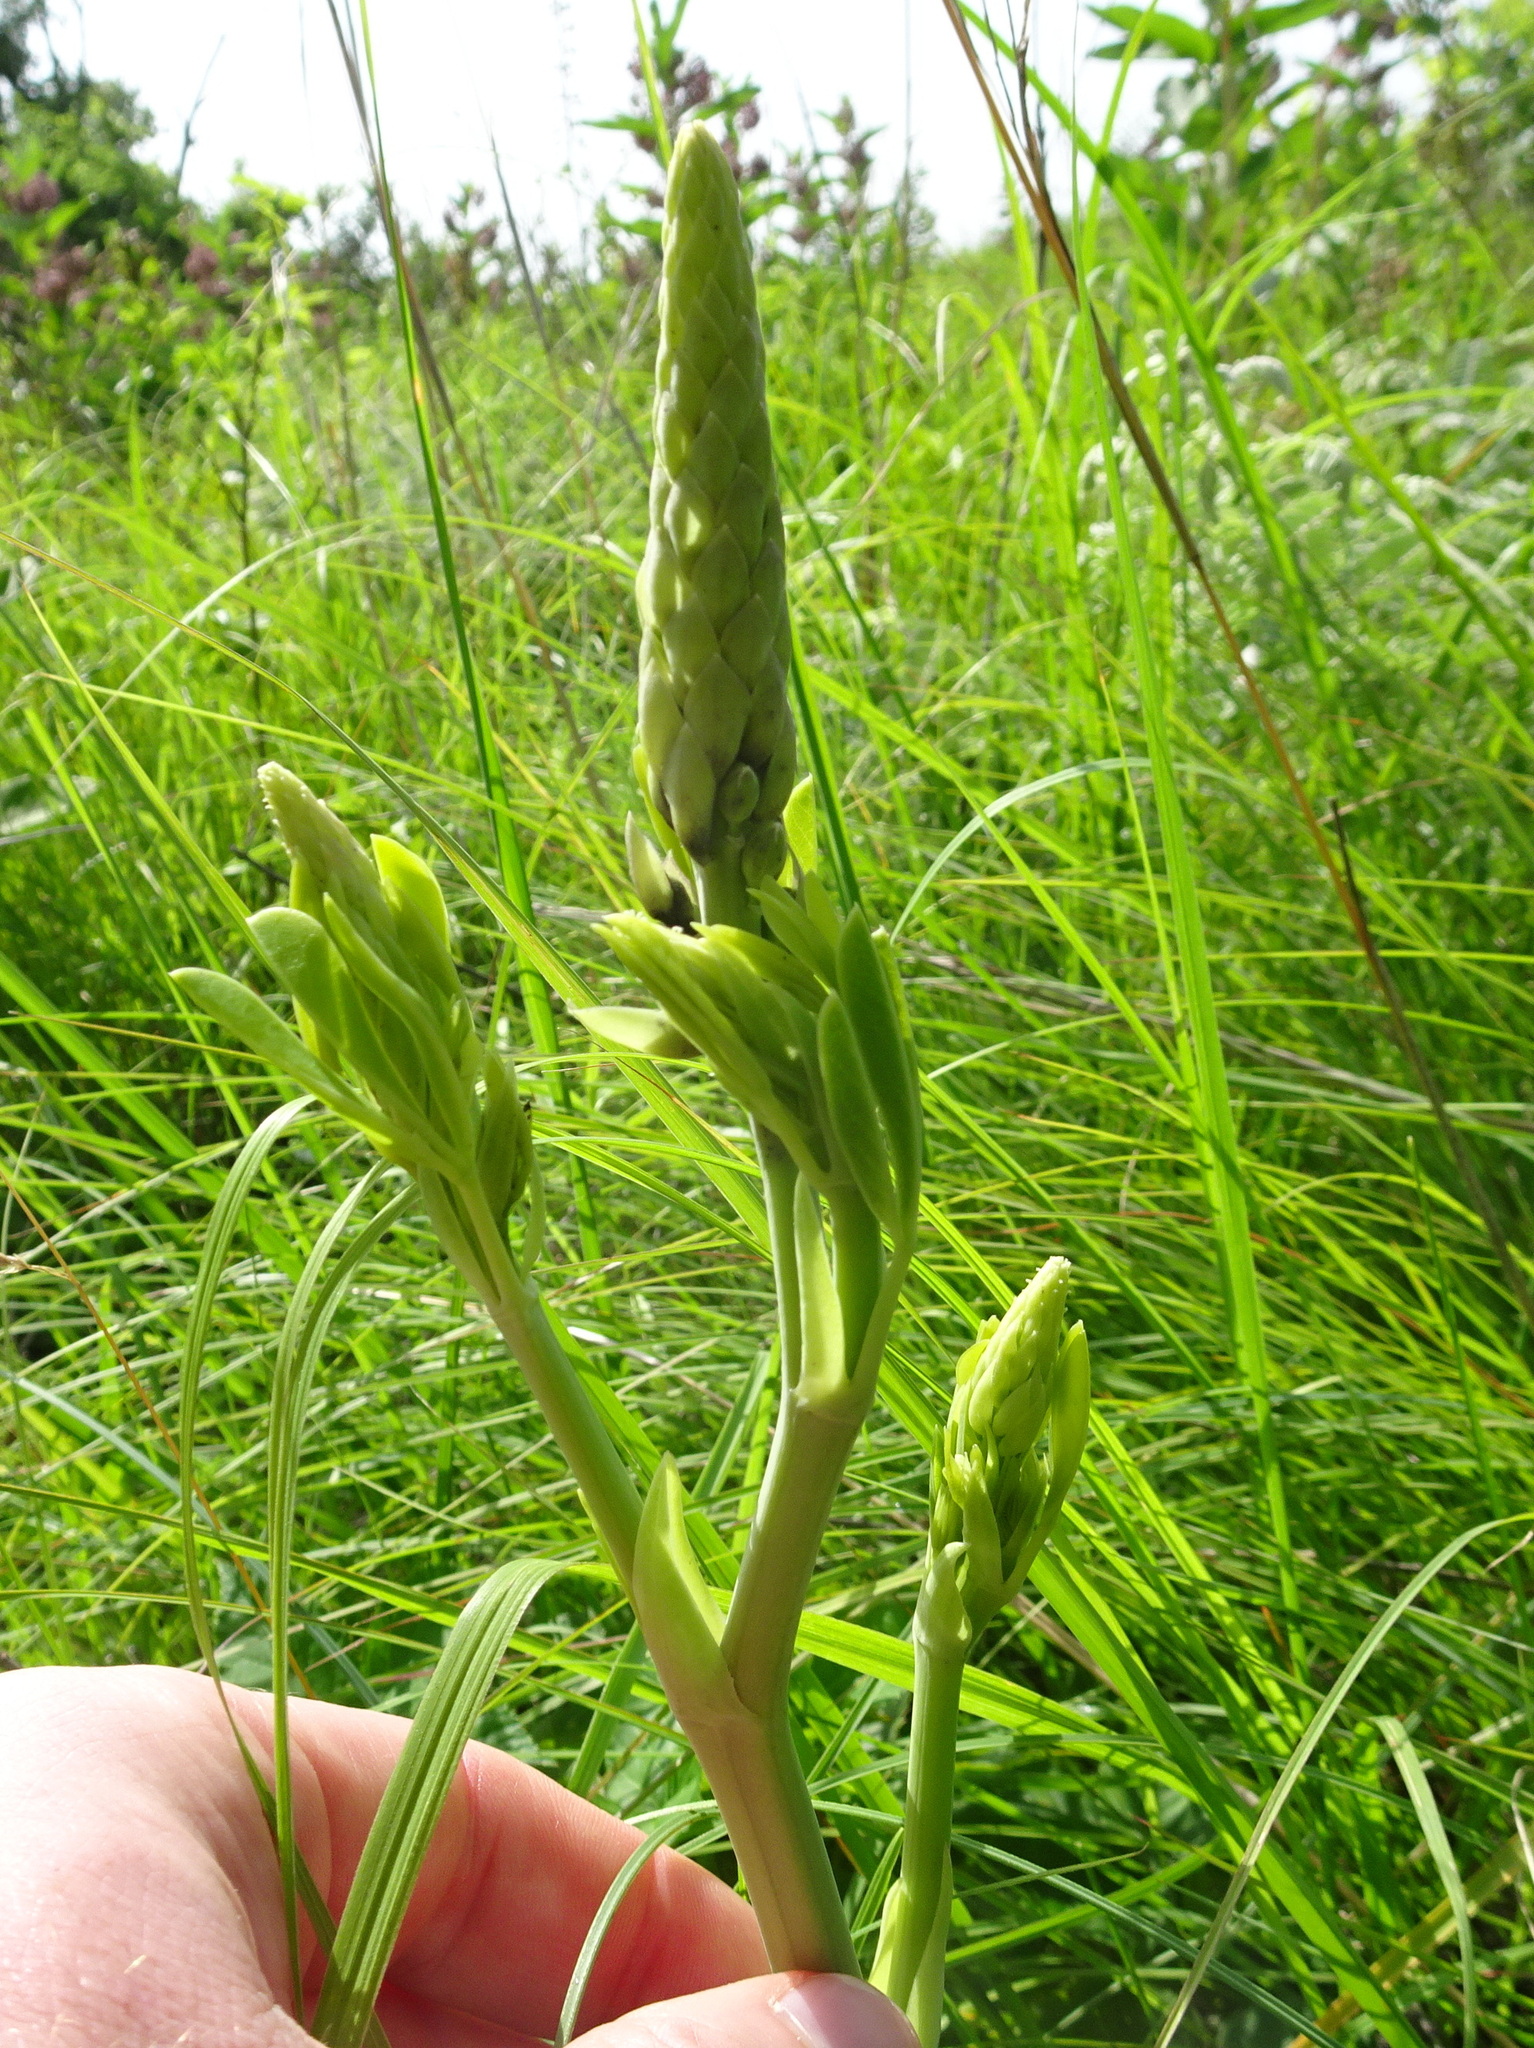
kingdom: Plantae
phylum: Tracheophyta
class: Magnoliopsida
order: Fabales
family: Fabaceae
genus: Baptisia
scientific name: Baptisia alba
